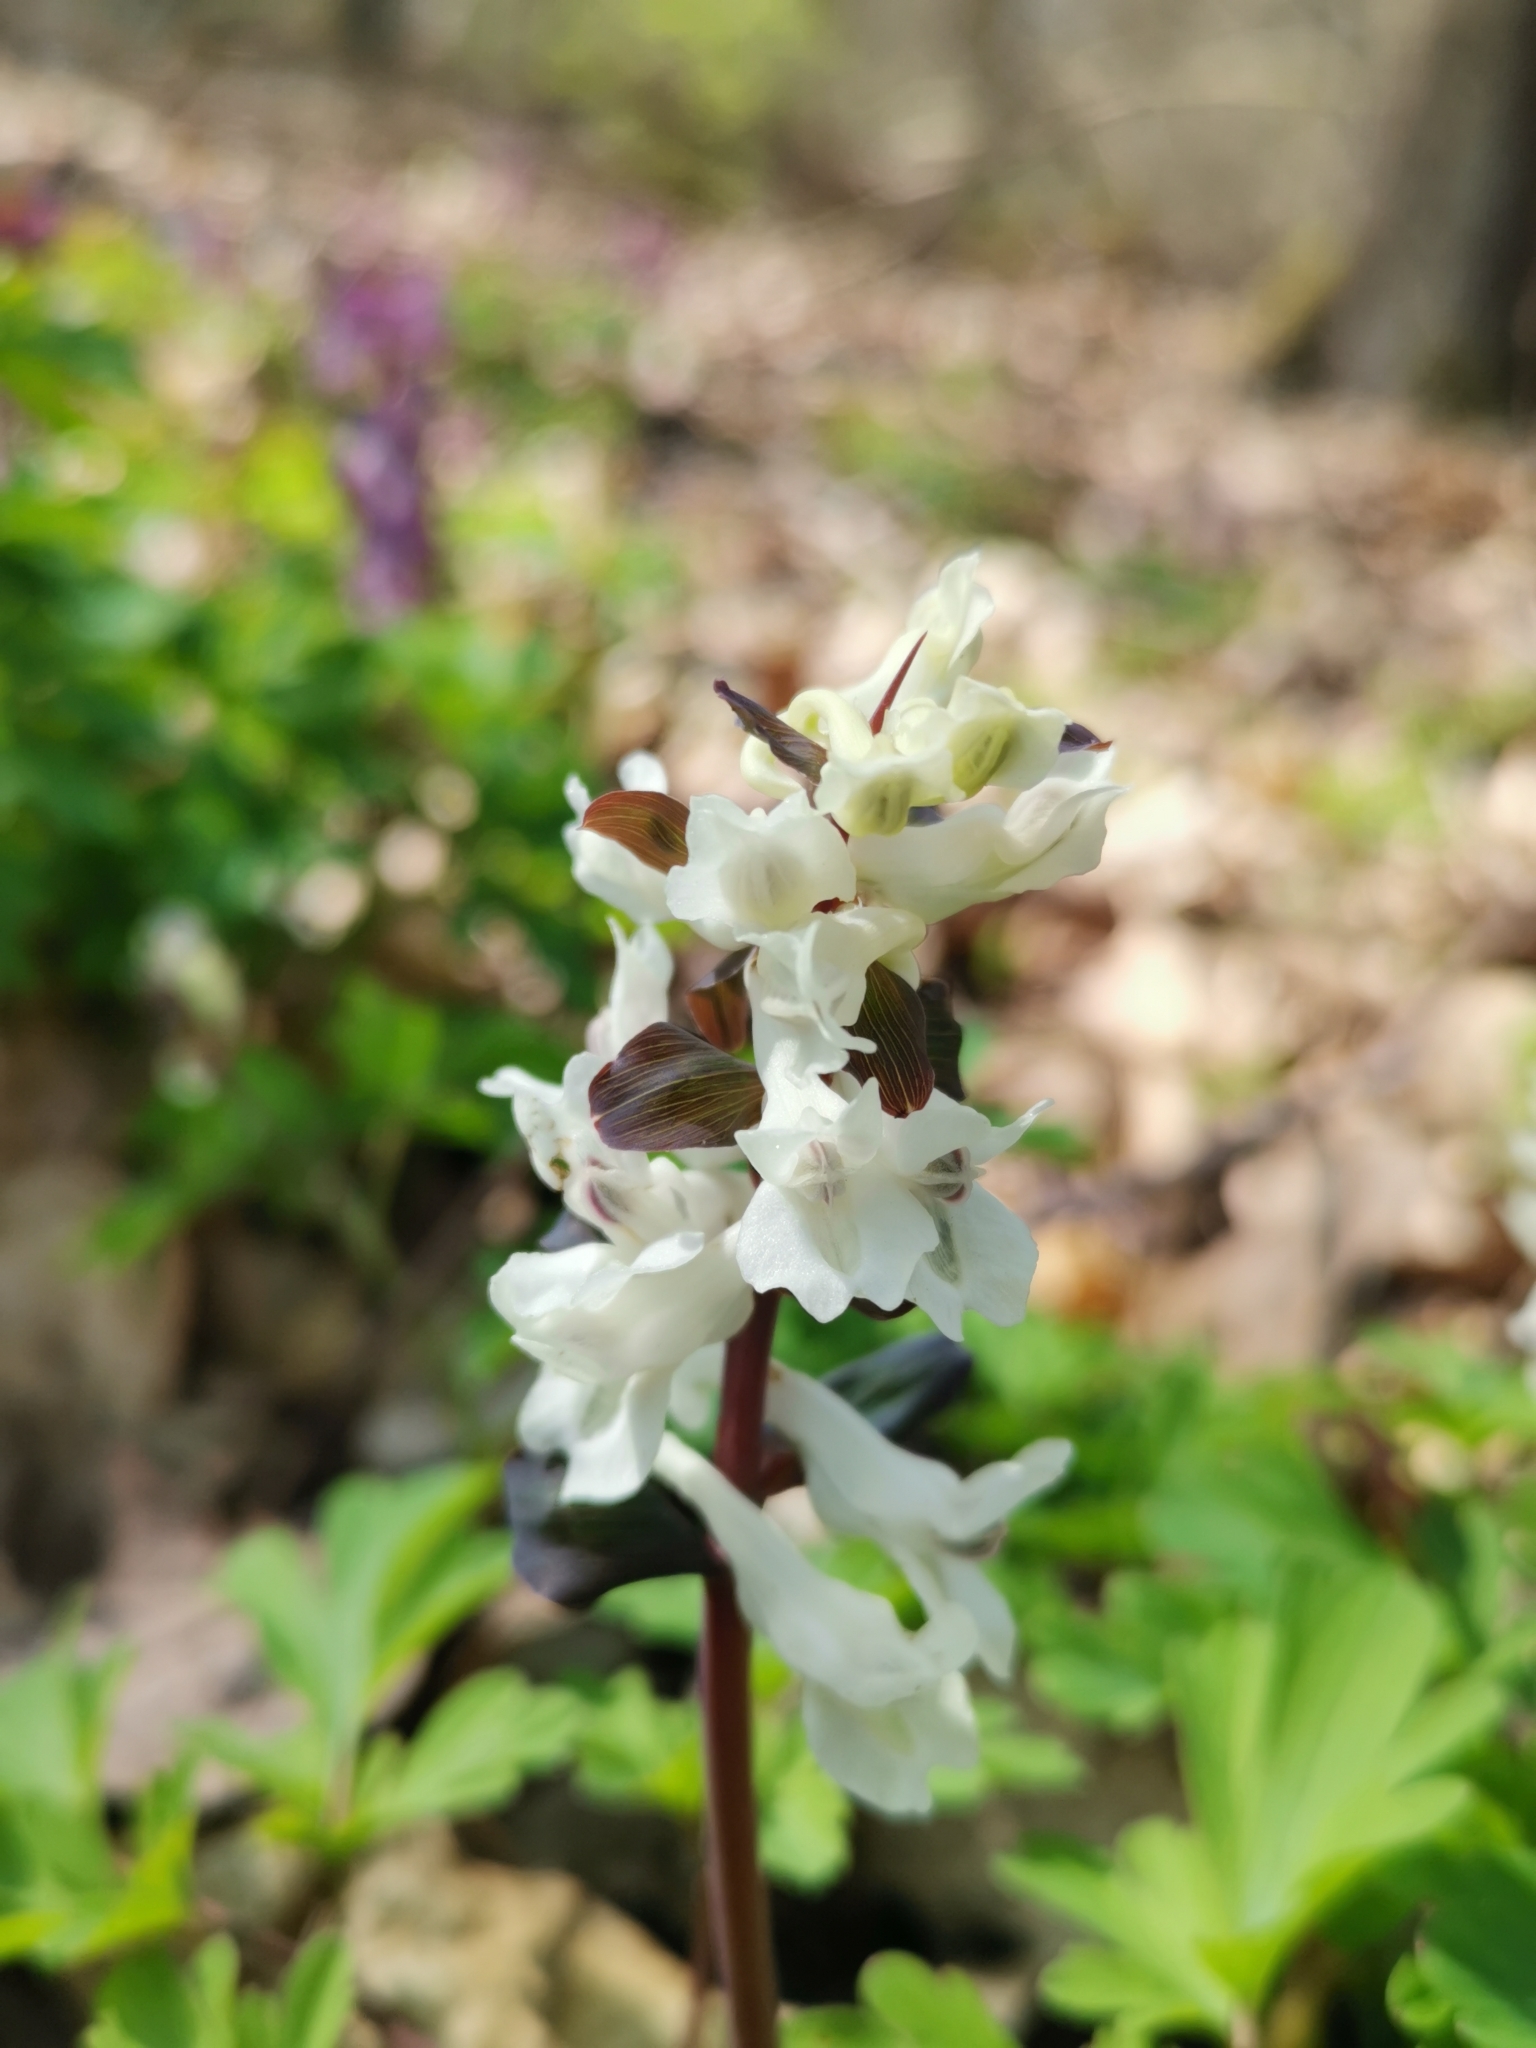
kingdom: Plantae
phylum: Tracheophyta
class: Magnoliopsida
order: Ranunculales
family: Papaveraceae
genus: Corydalis
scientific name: Corydalis cava
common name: Hollowroot
